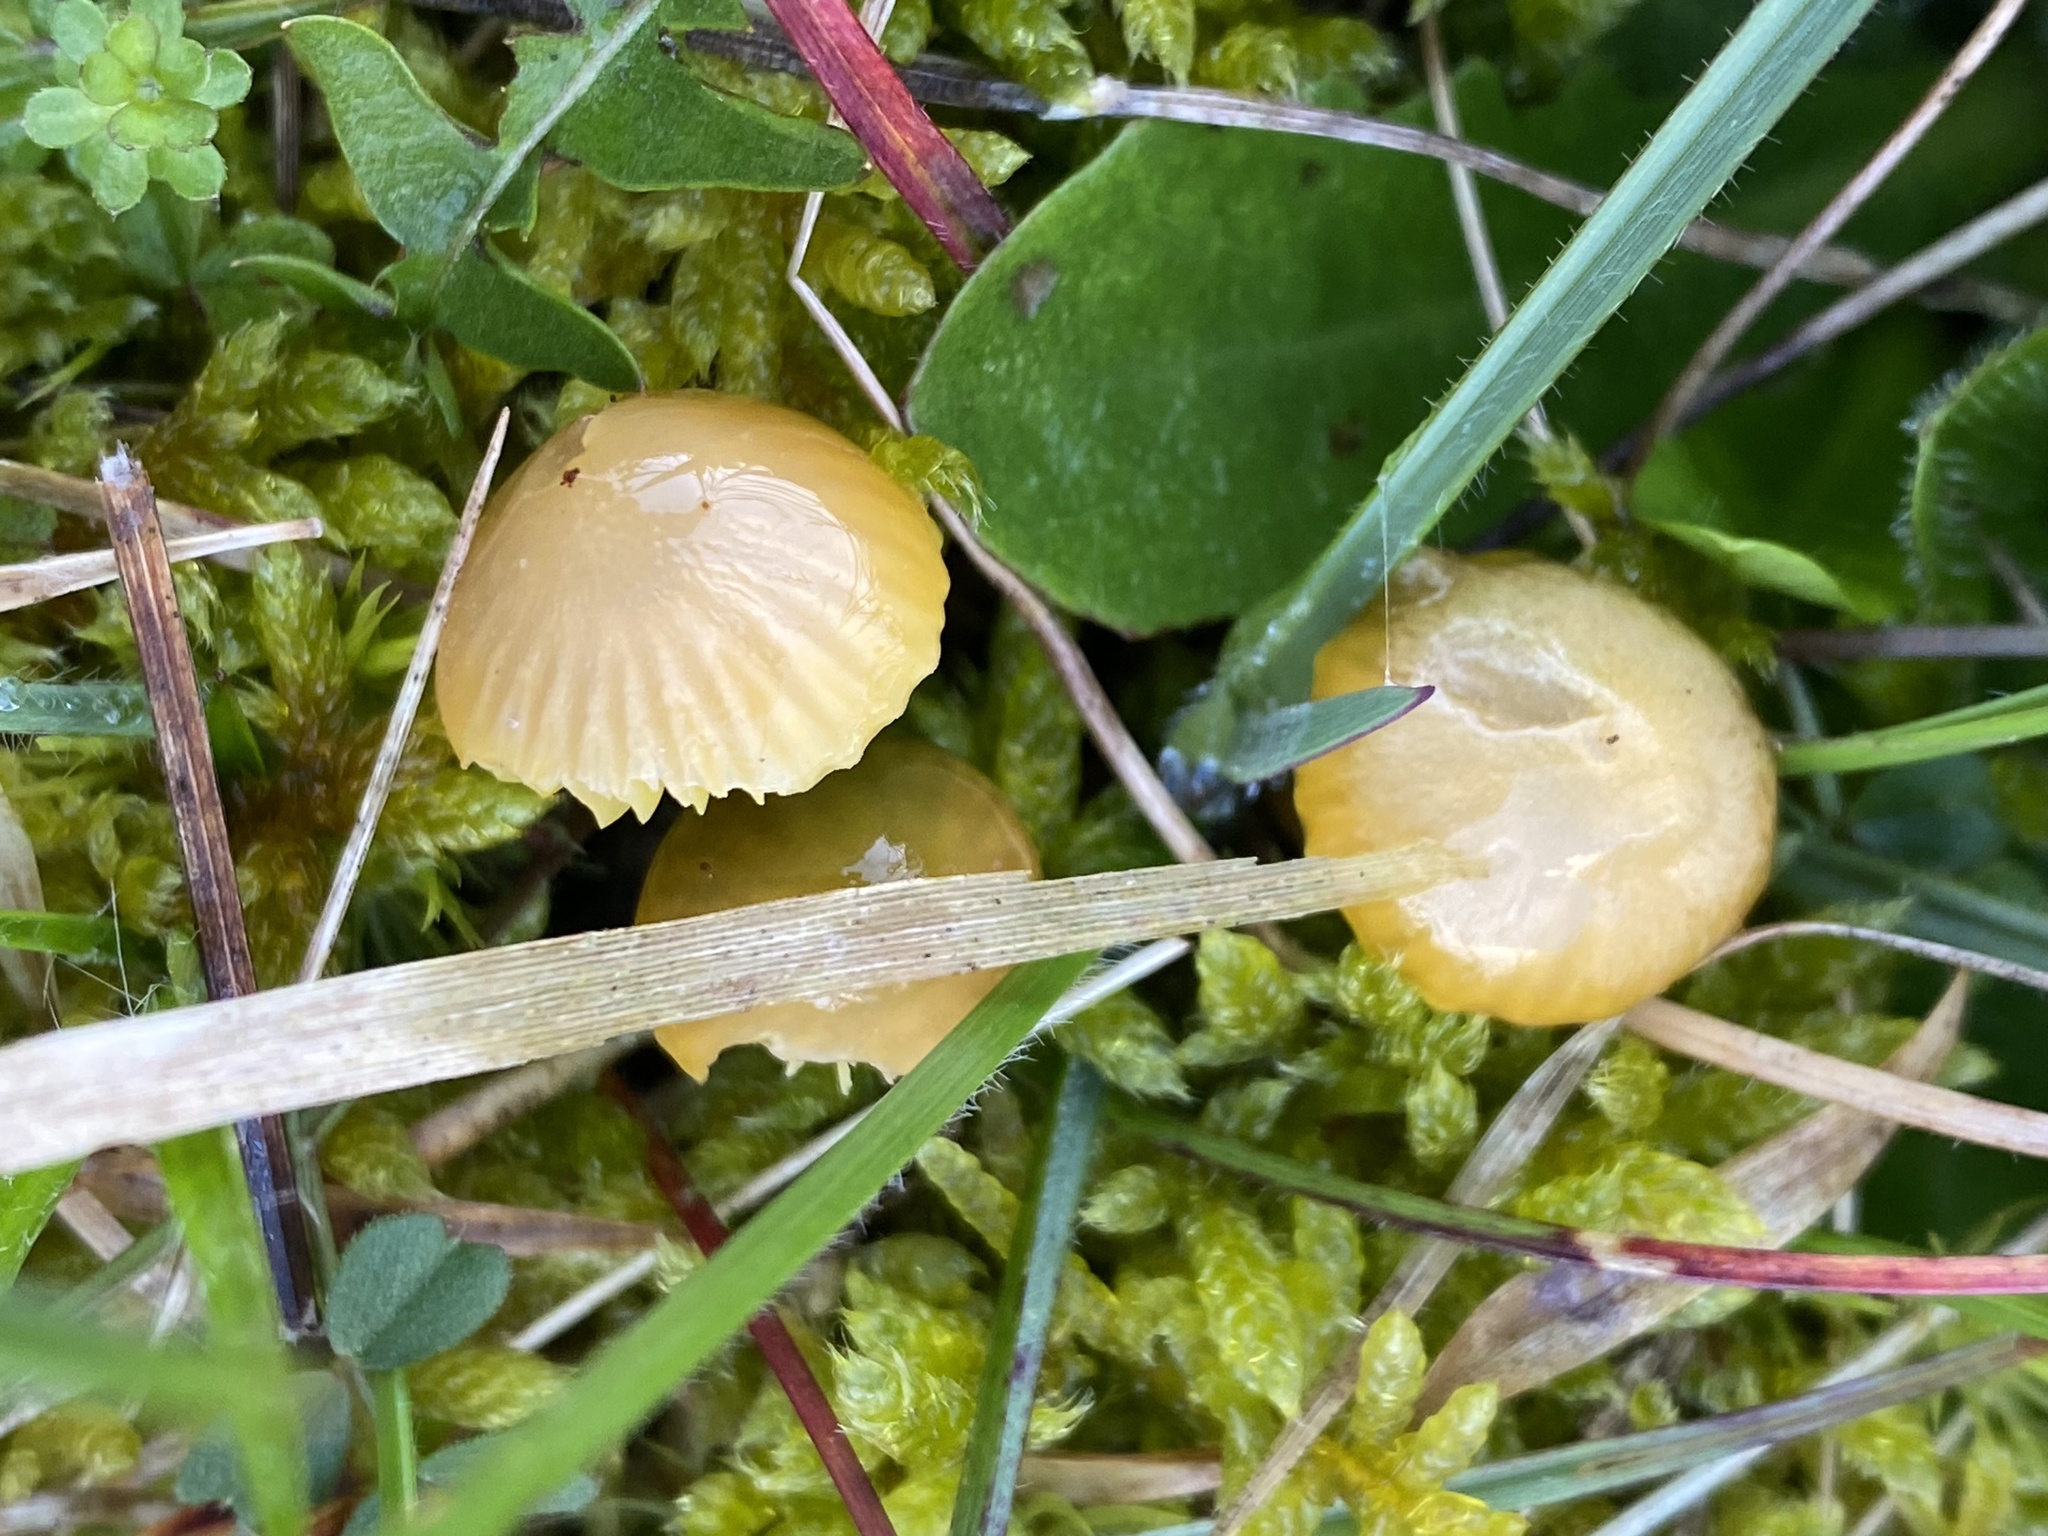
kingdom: Fungi
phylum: Basidiomycota
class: Agaricomycetes
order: Agaricales
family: Hygrophoraceae
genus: Gliophorus
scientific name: Gliophorus psittacinus
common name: Parrot wax-cap
